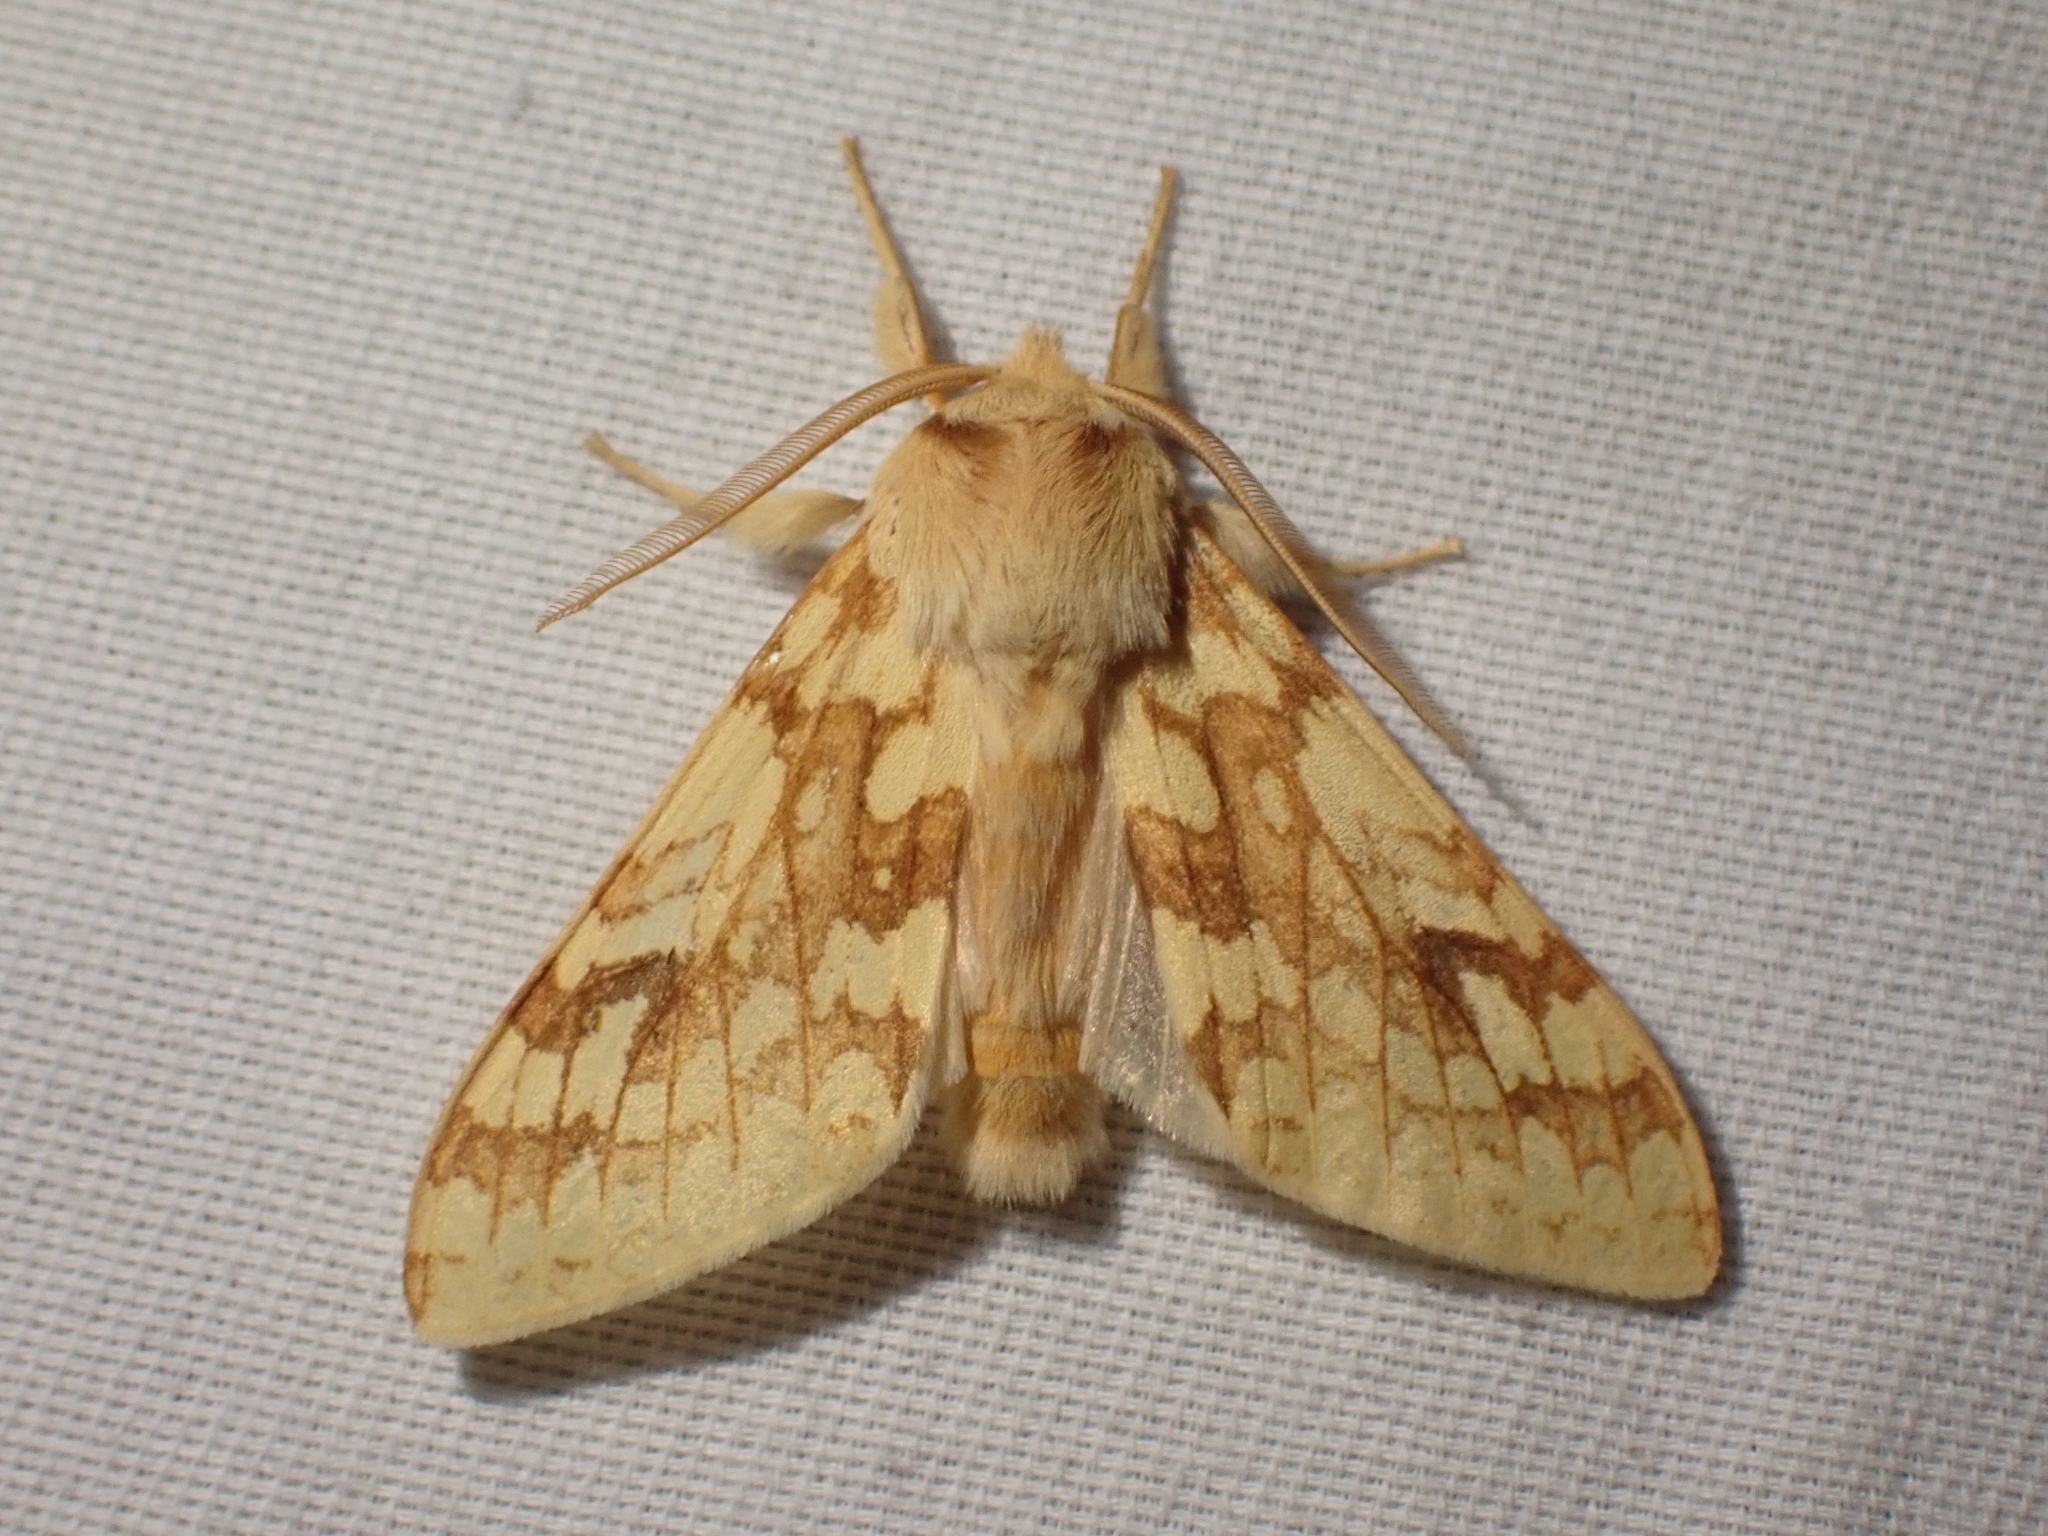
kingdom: Animalia
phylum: Arthropoda
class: Insecta
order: Lepidoptera
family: Erebidae
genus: Lophocampa
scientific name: Lophocampa maculata
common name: Spotted tussock moth
